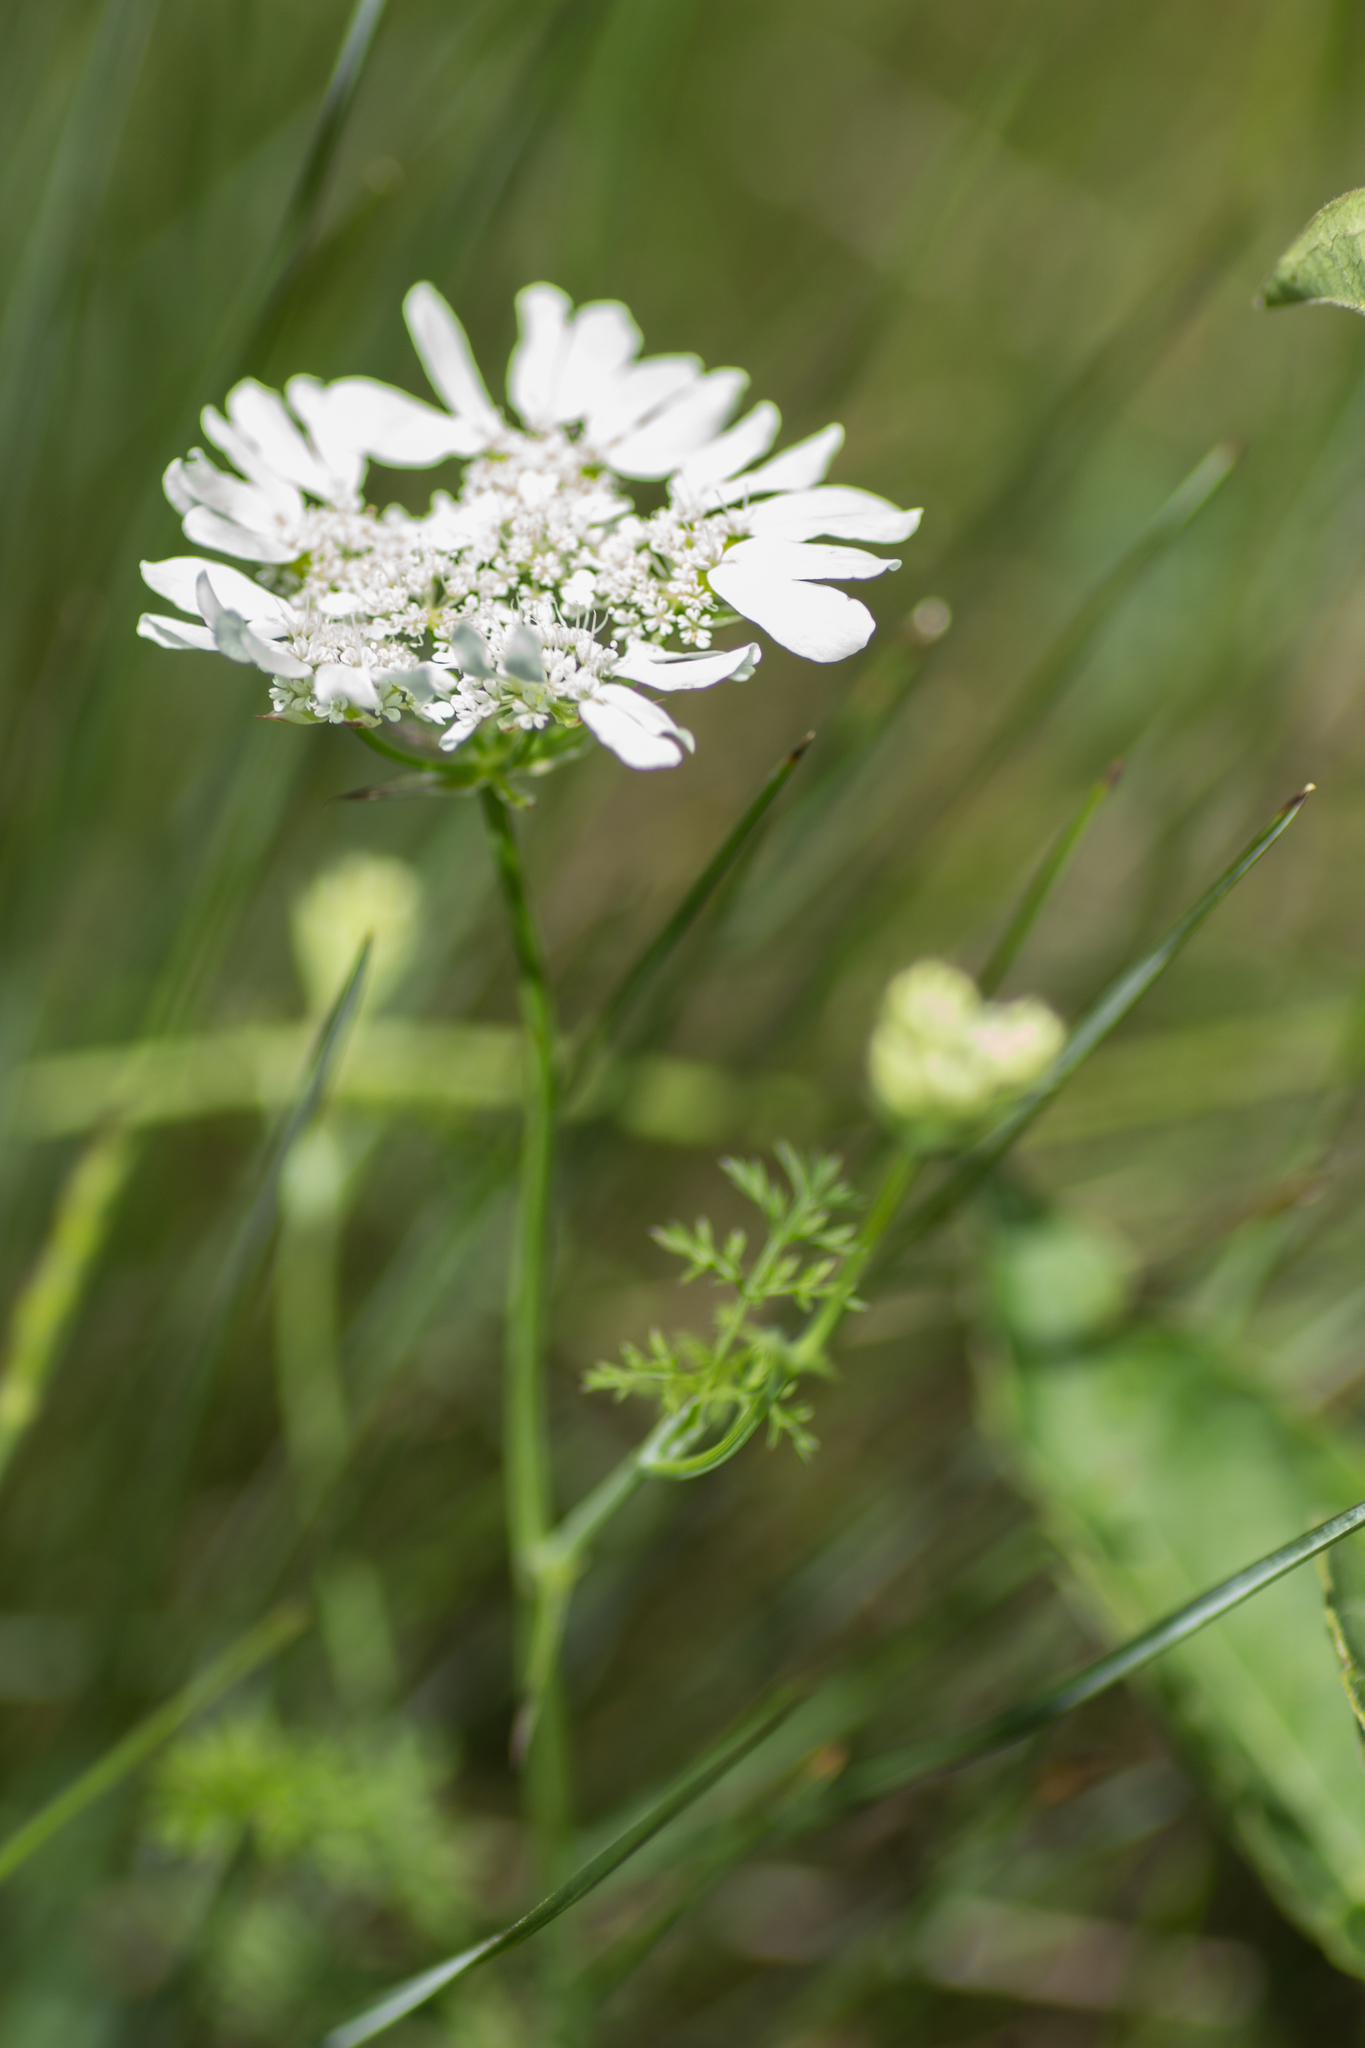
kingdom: Plantae
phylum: Tracheophyta
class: Magnoliopsida
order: Apiales
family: Apiaceae
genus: Orlaya
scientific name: Orlaya grandiflora
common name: White lace flower
